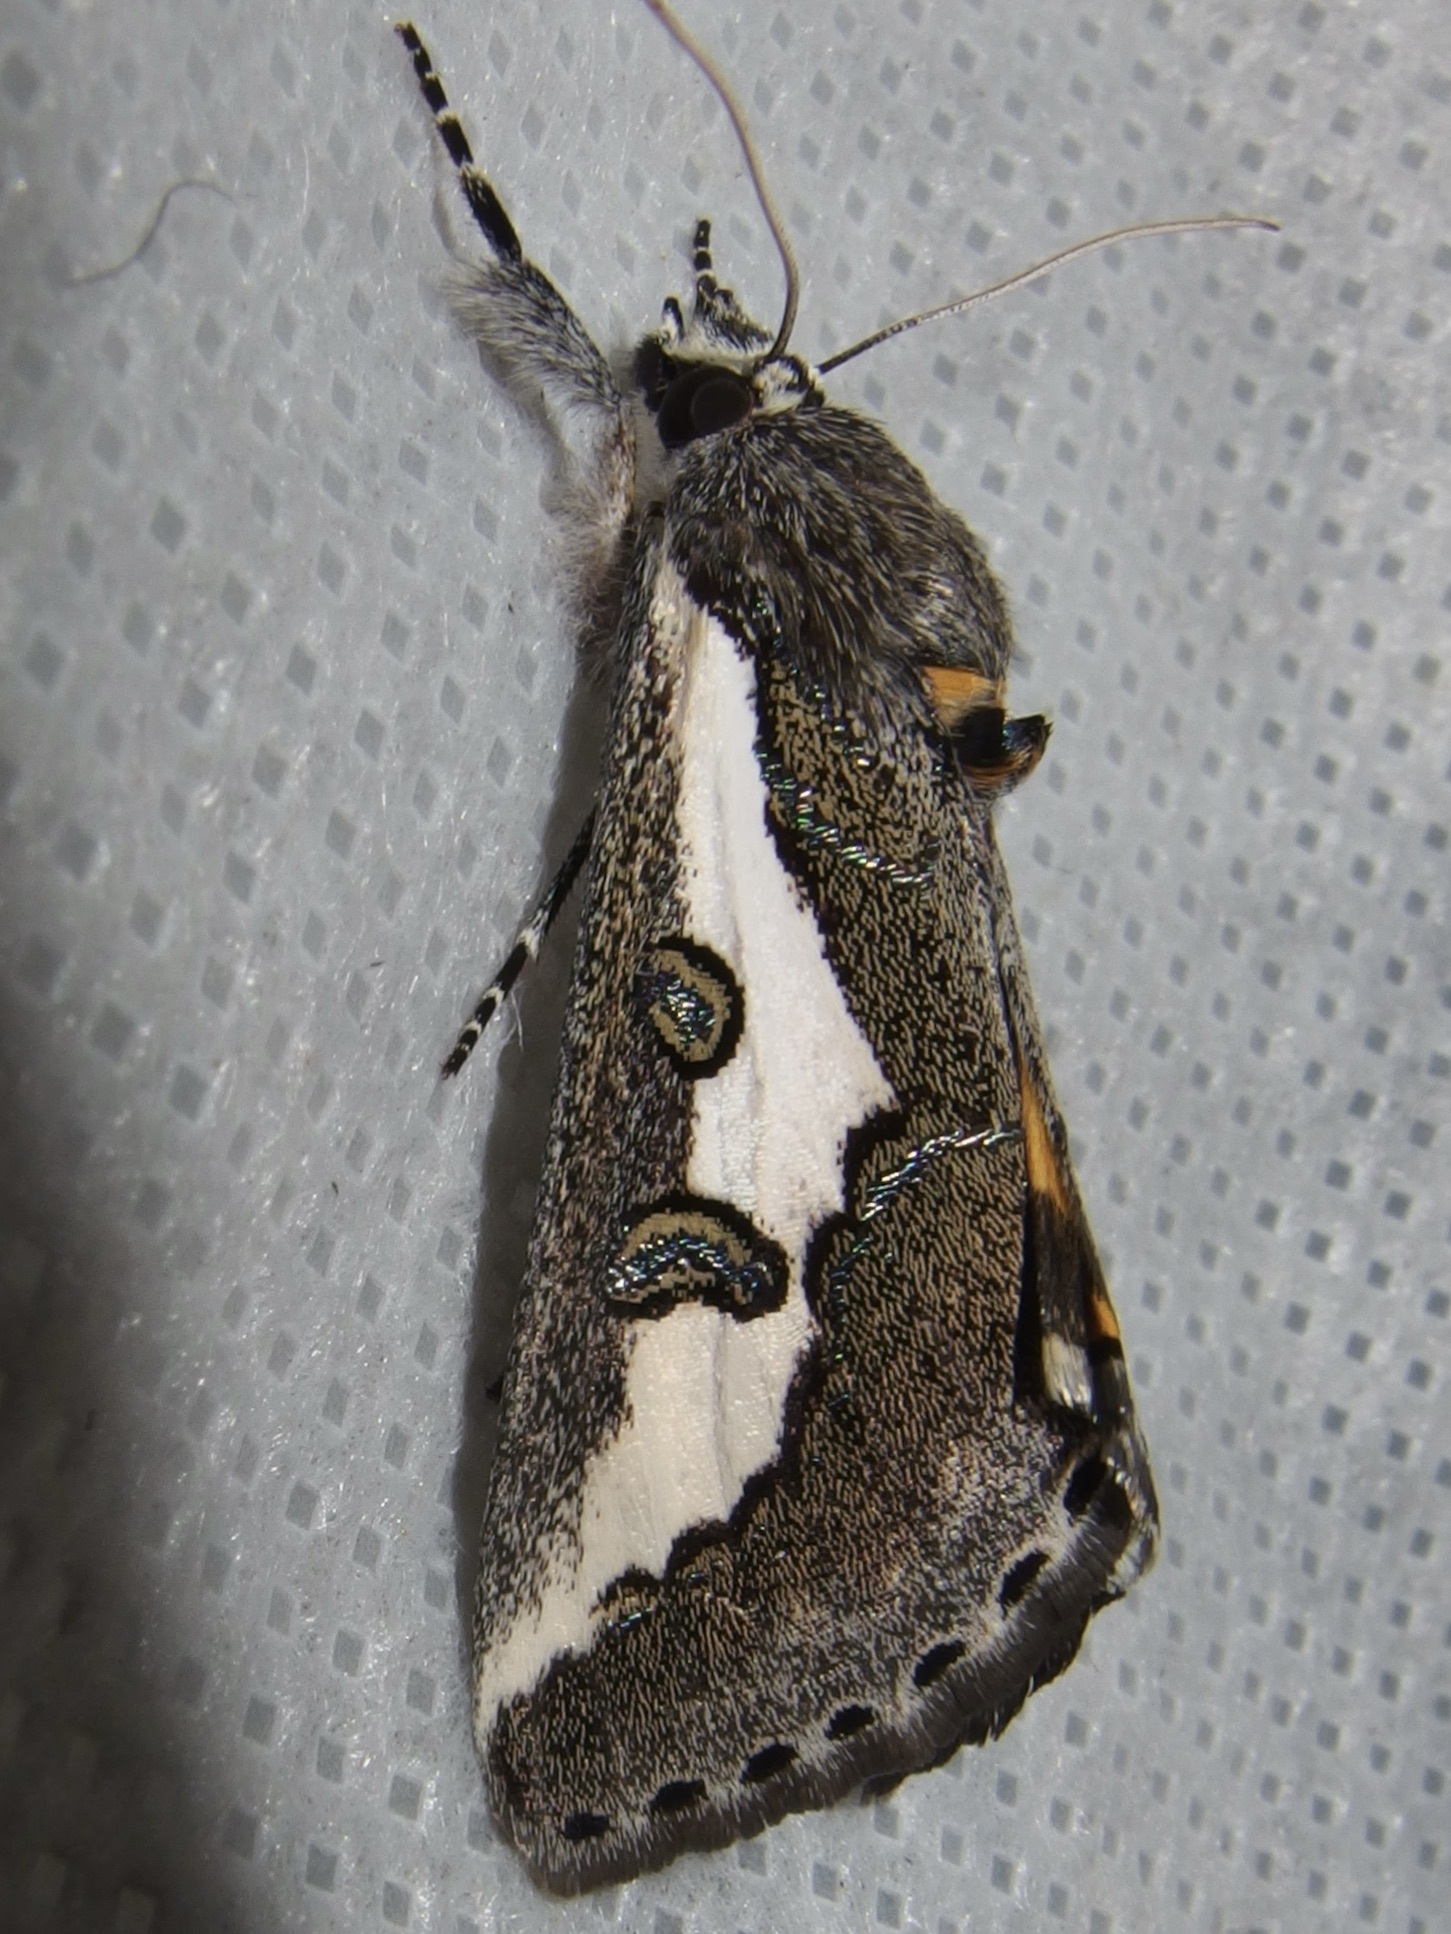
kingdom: Animalia
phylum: Arthropoda
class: Insecta
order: Lepidoptera
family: Noctuidae
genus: Euscirrhopterus
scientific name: Euscirrhopterus gloveri
